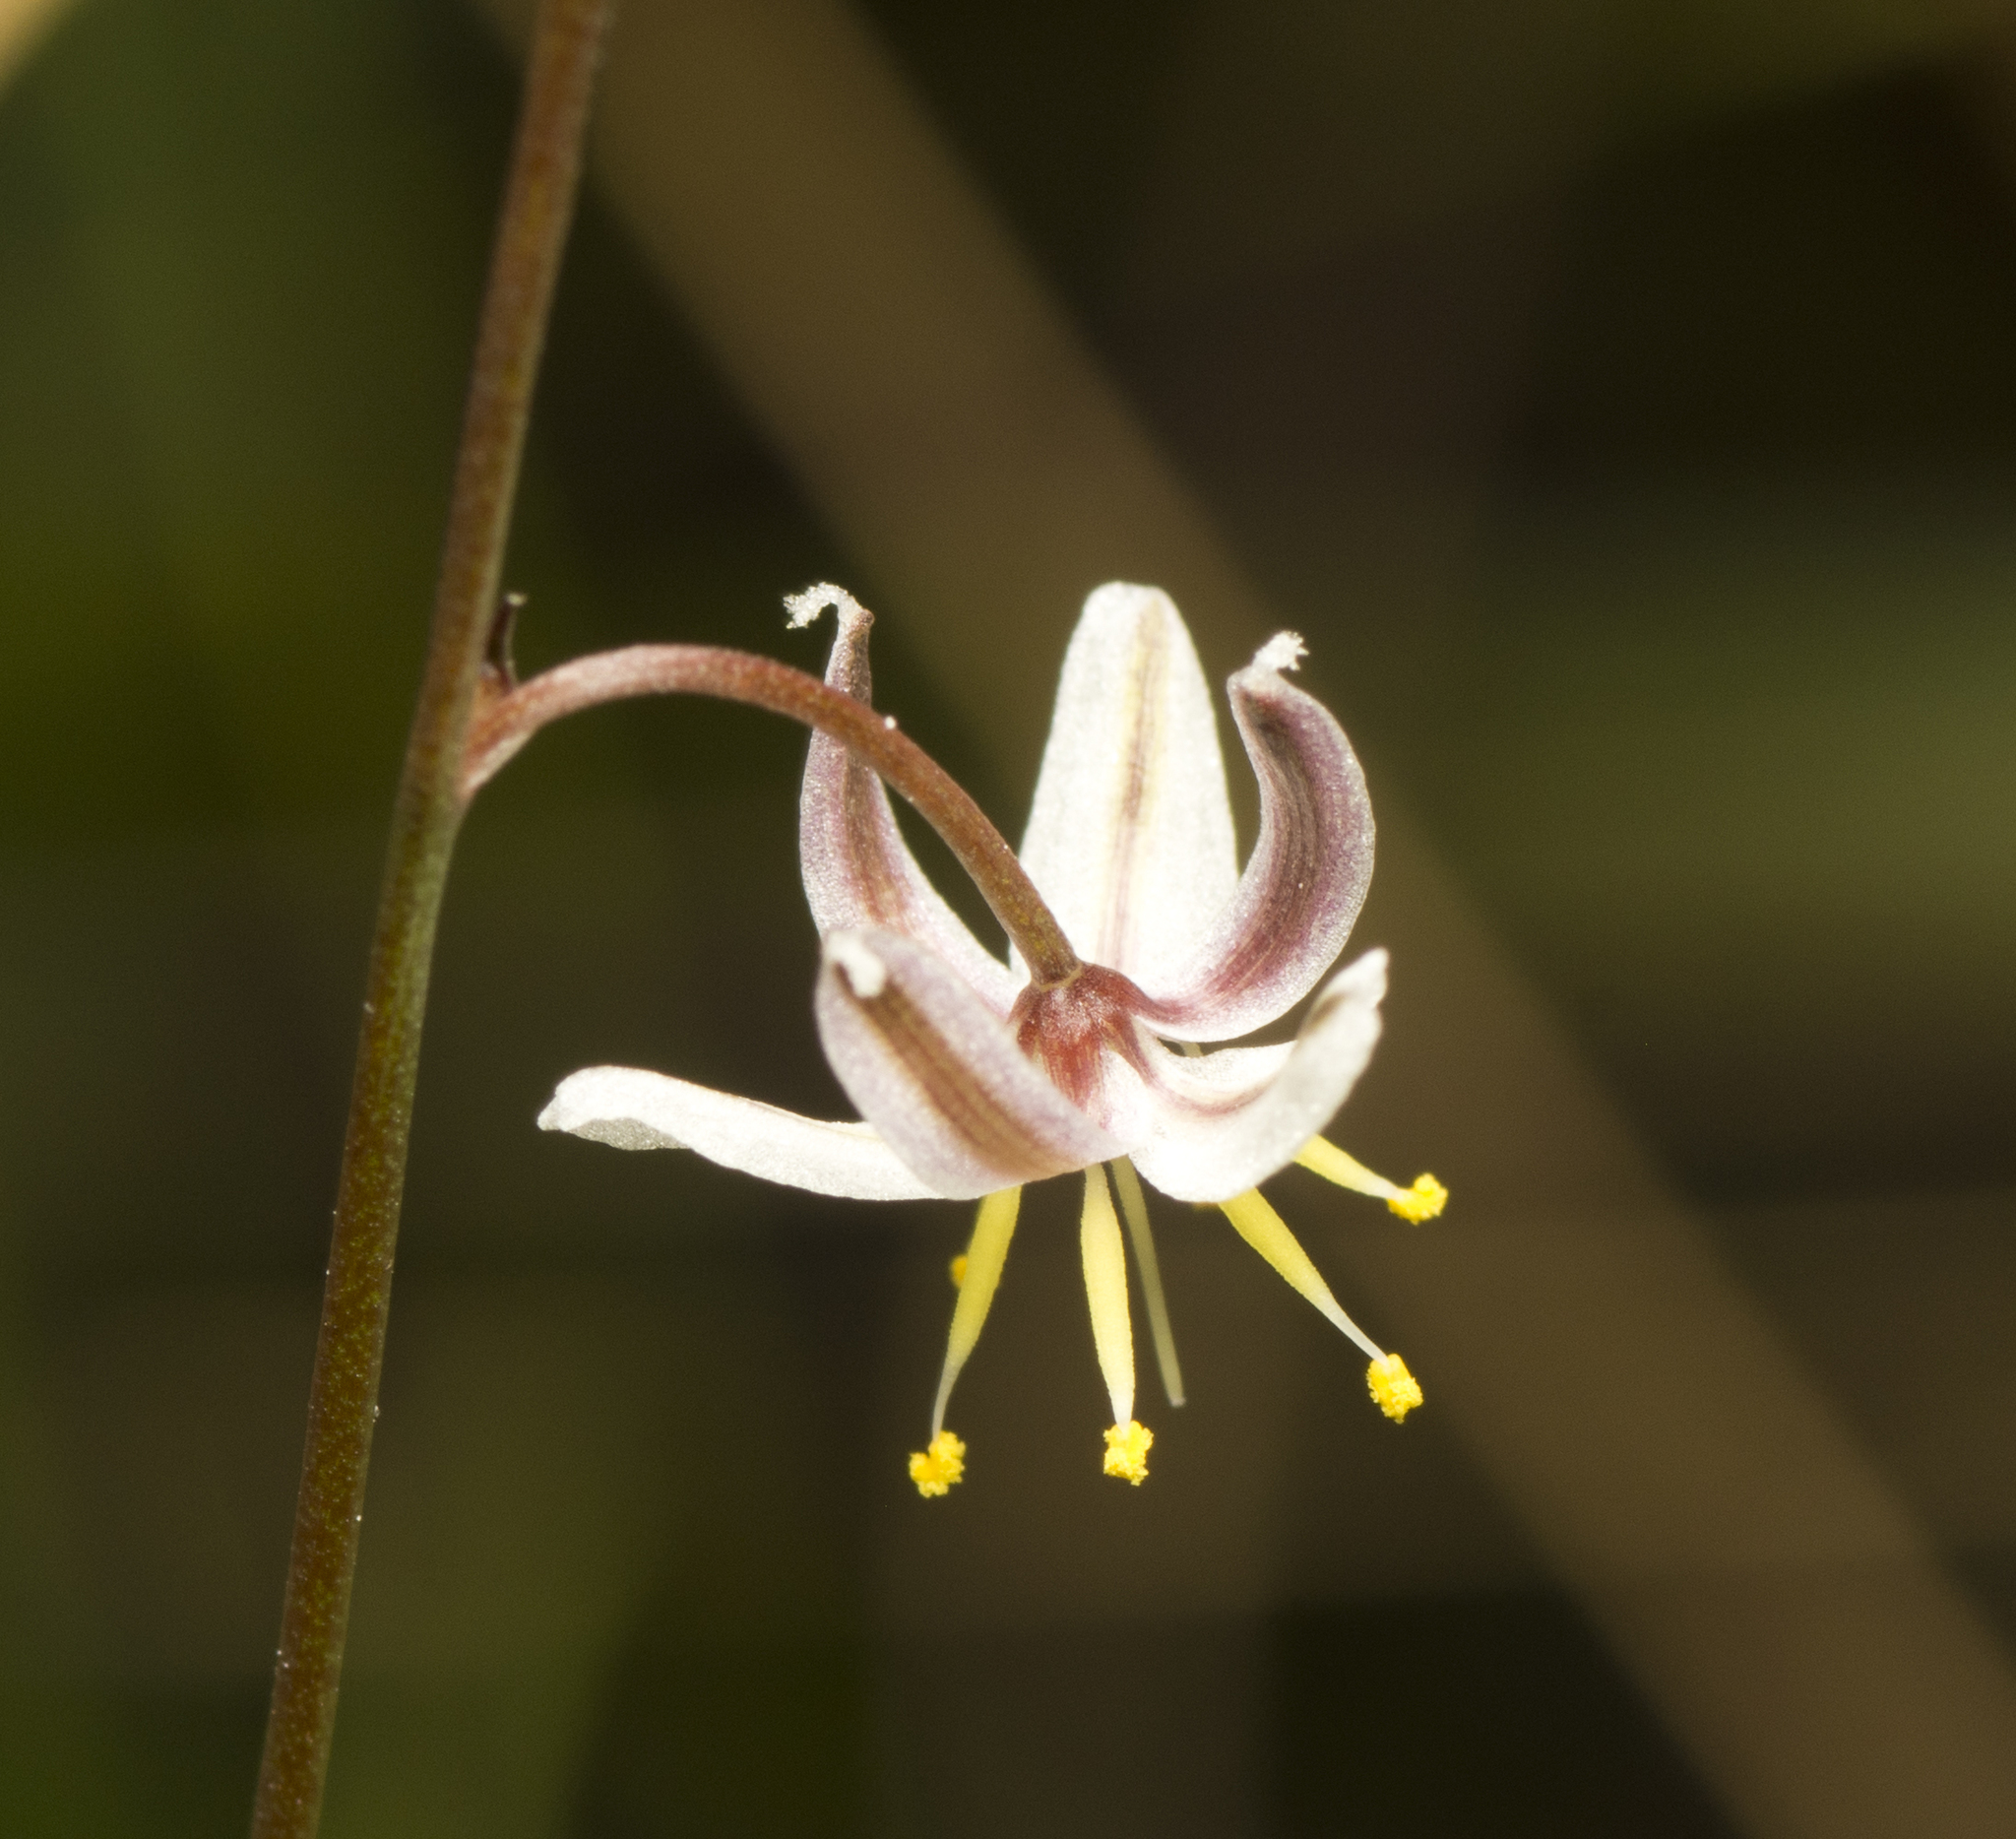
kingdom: Plantae
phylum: Tracheophyta
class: Liliopsida
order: Asparagales
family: Asphodelaceae
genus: Caesia
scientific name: Caesia
